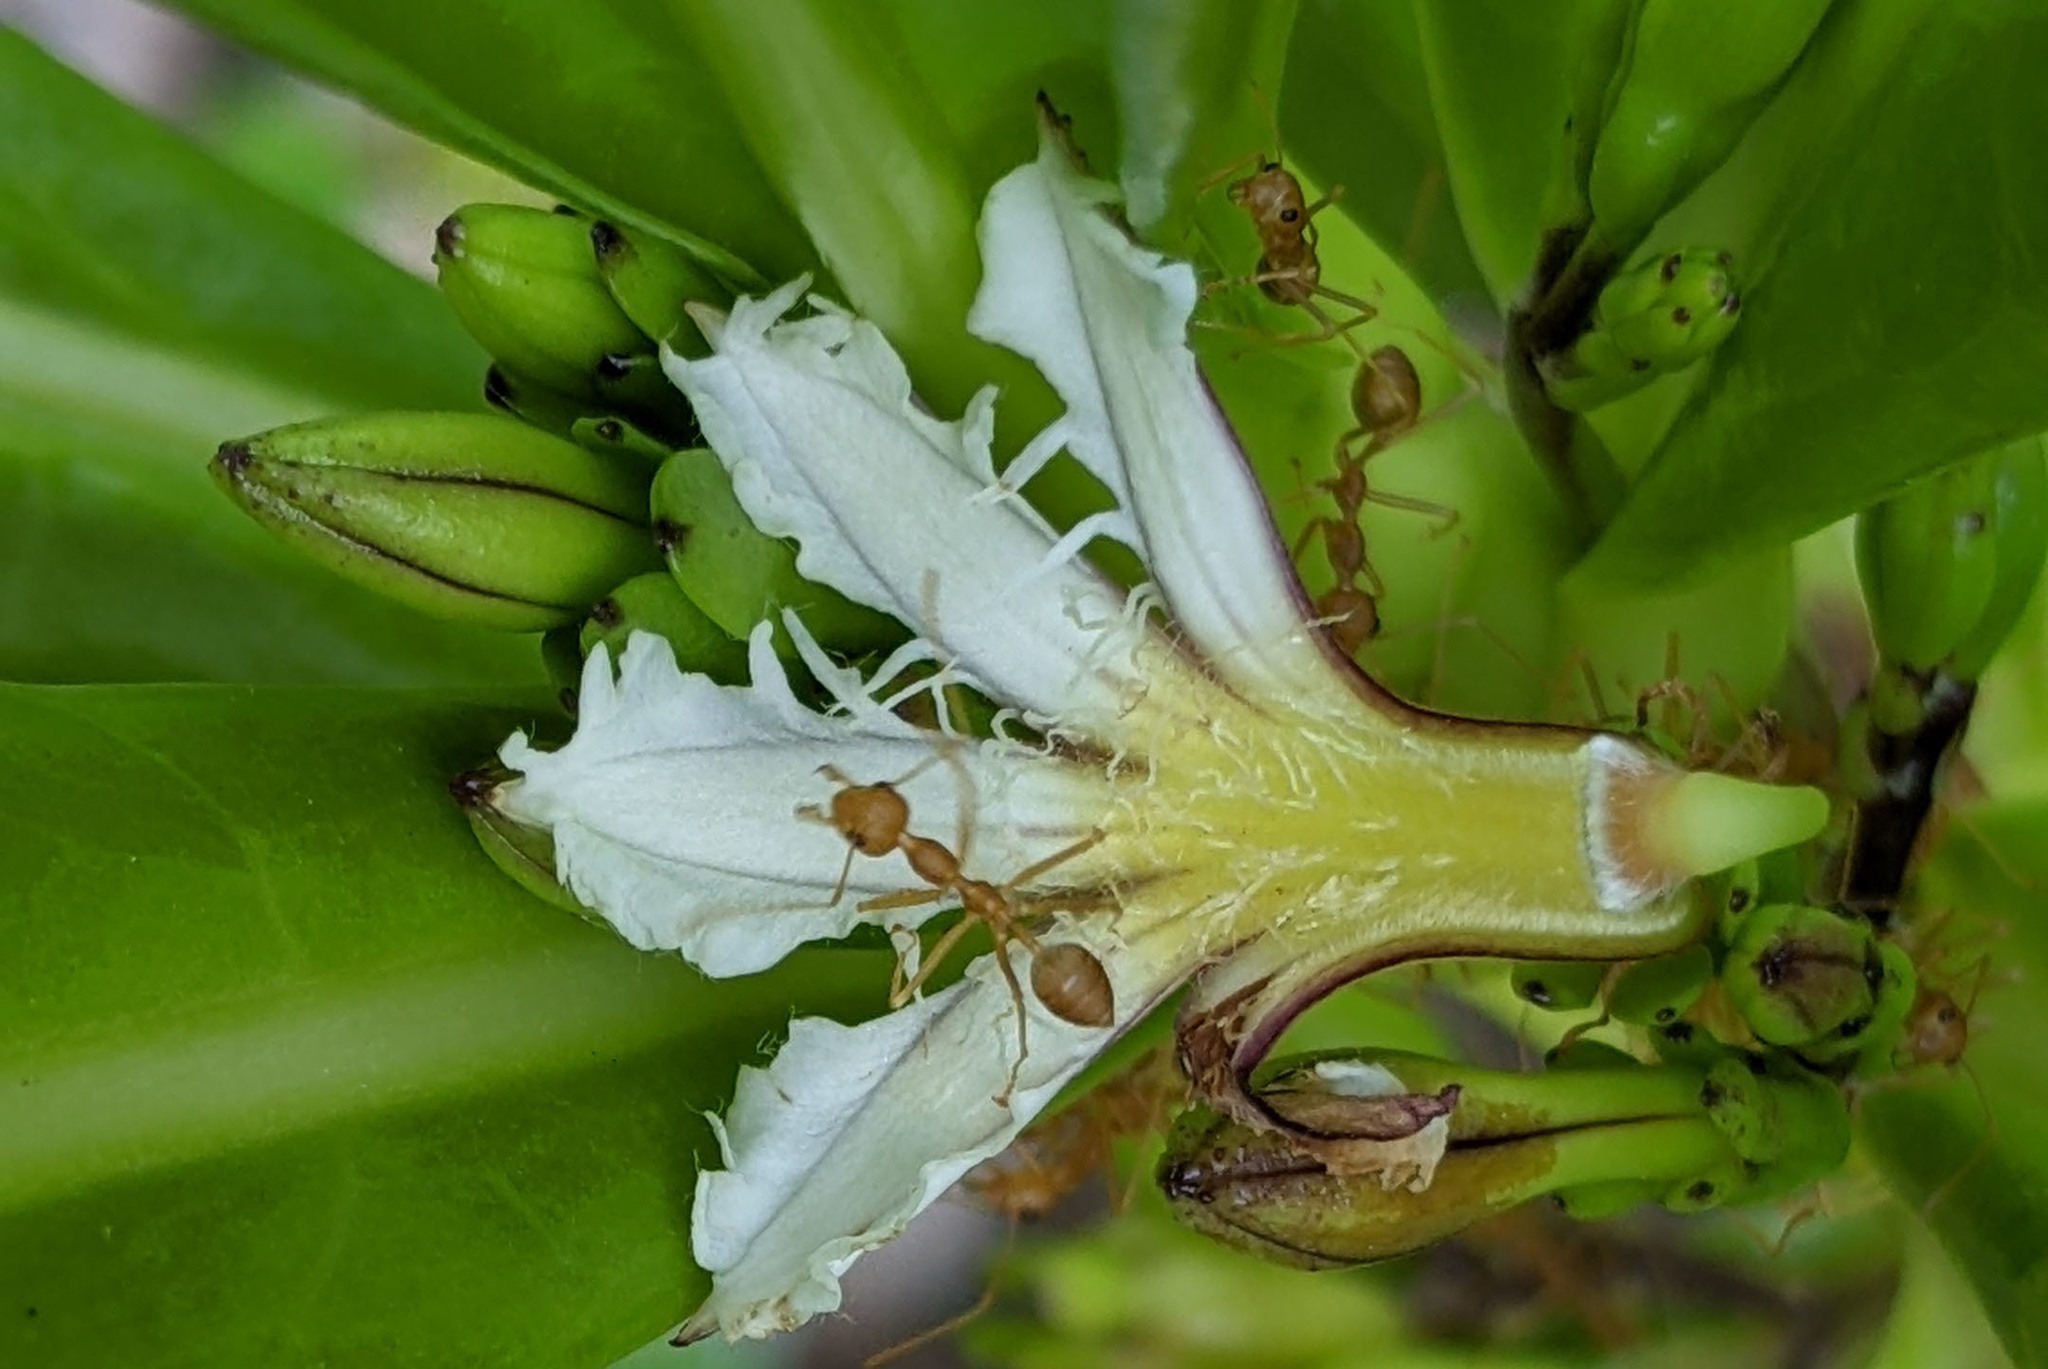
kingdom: Animalia
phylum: Arthropoda
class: Insecta
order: Hymenoptera
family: Formicidae
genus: Oecophylla
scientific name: Oecophylla smaragdina
